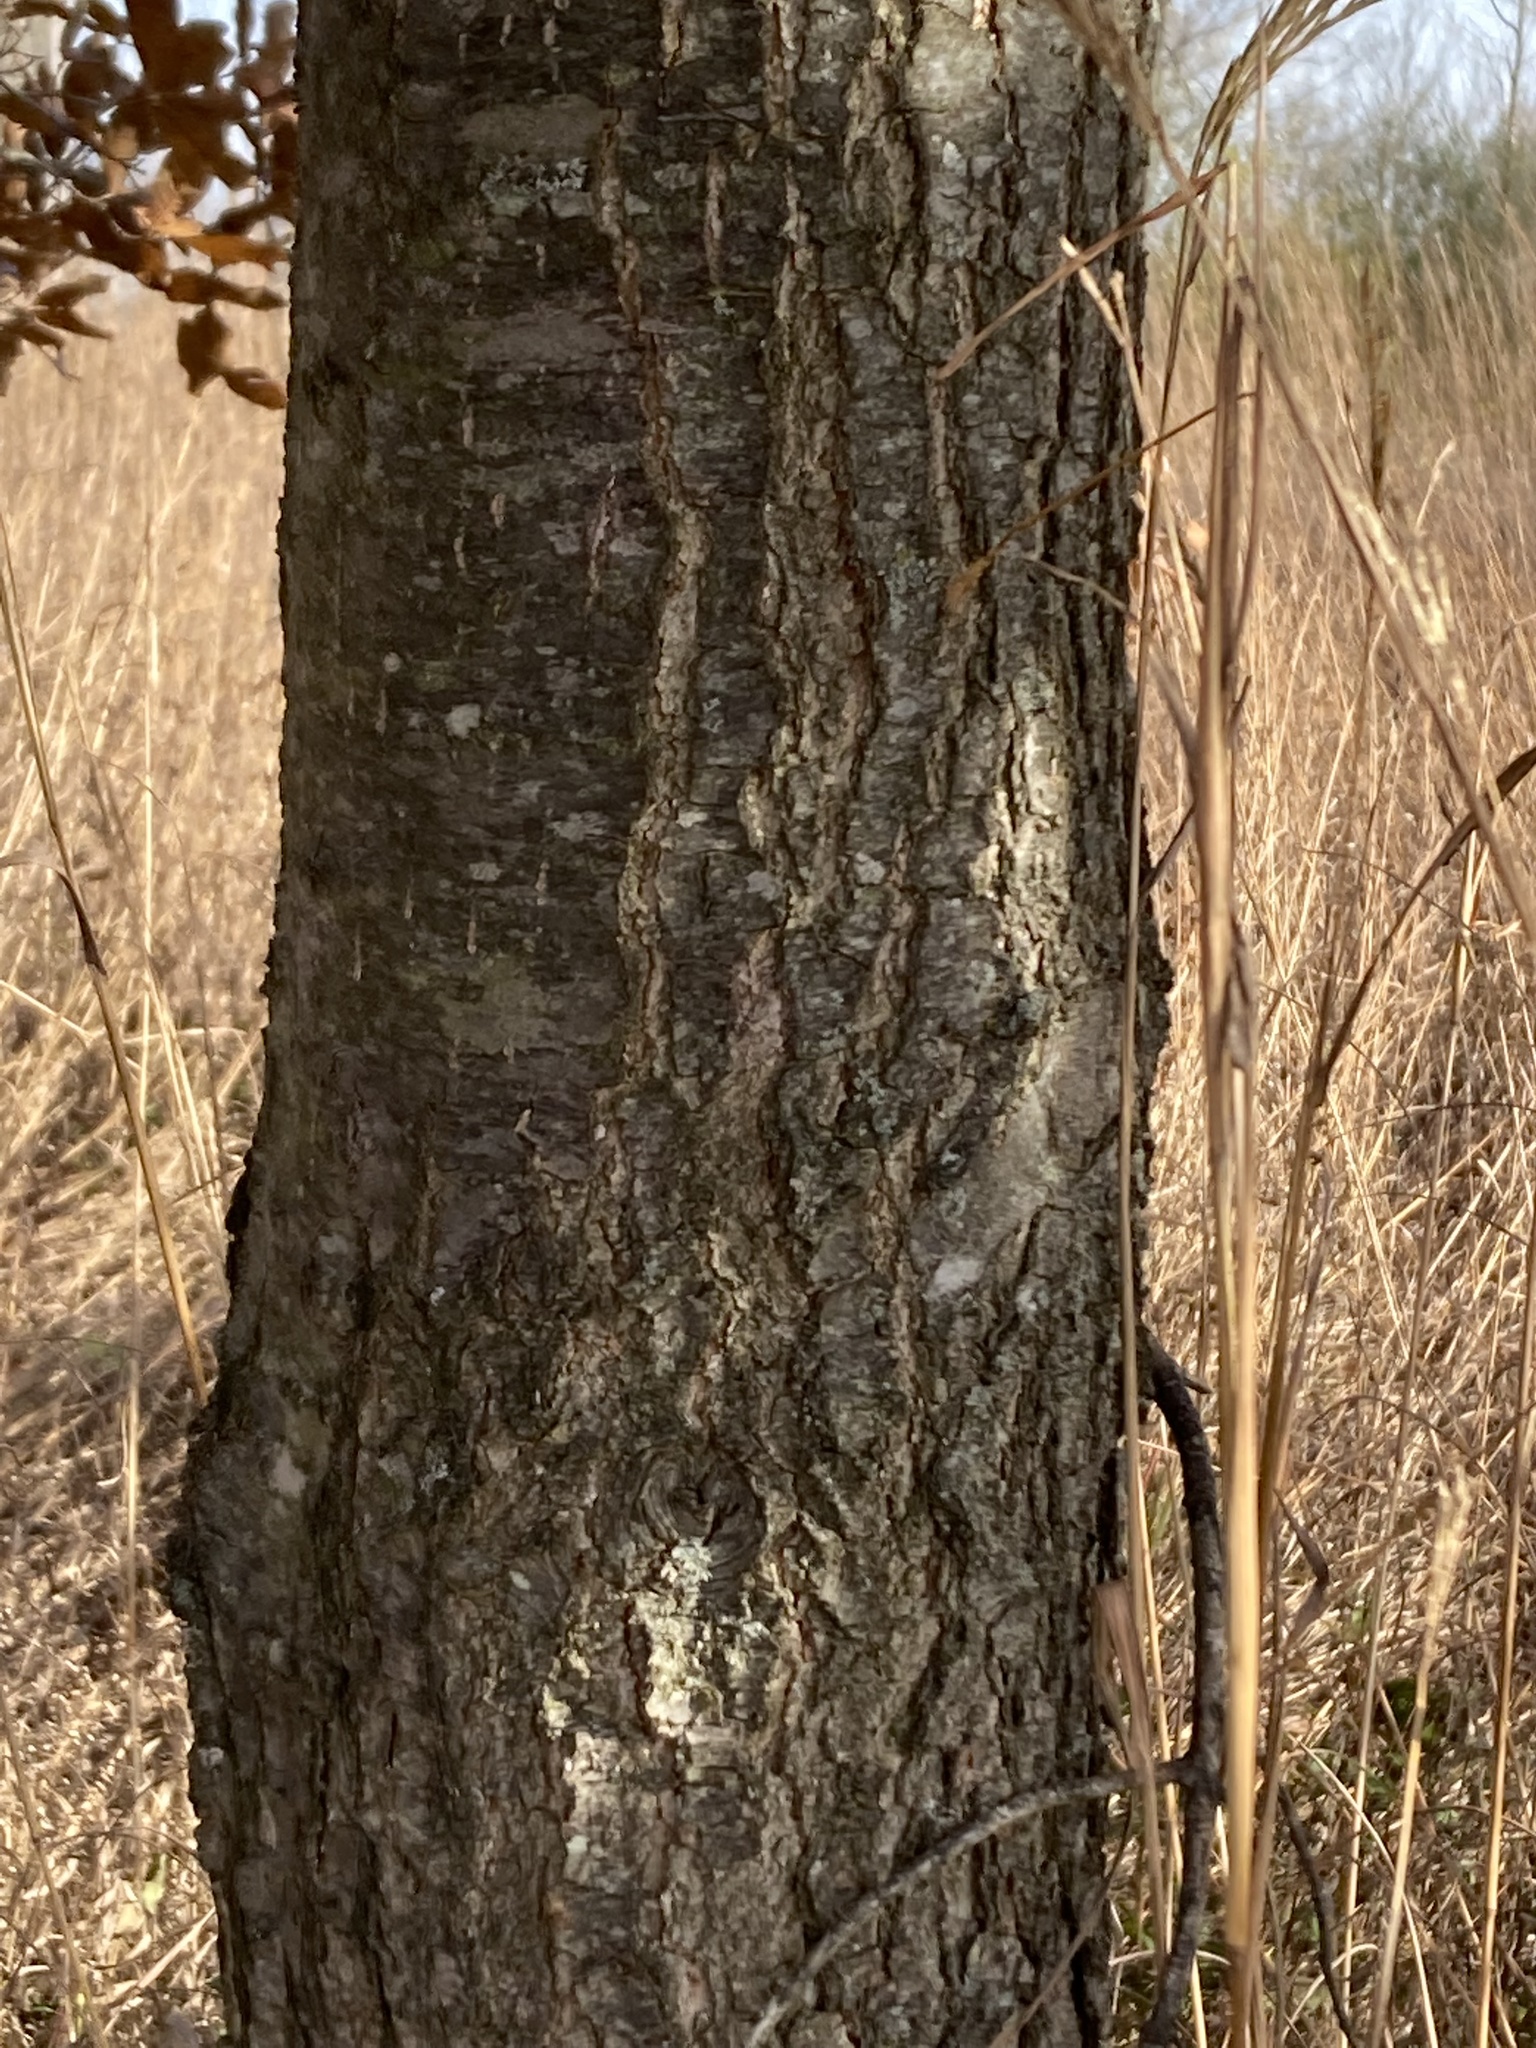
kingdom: Plantae
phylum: Tracheophyta
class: Magnoliopsida
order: Fagales
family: Fagaceae
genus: Quercus
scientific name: Quercus imbricaria
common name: Shingle oak
